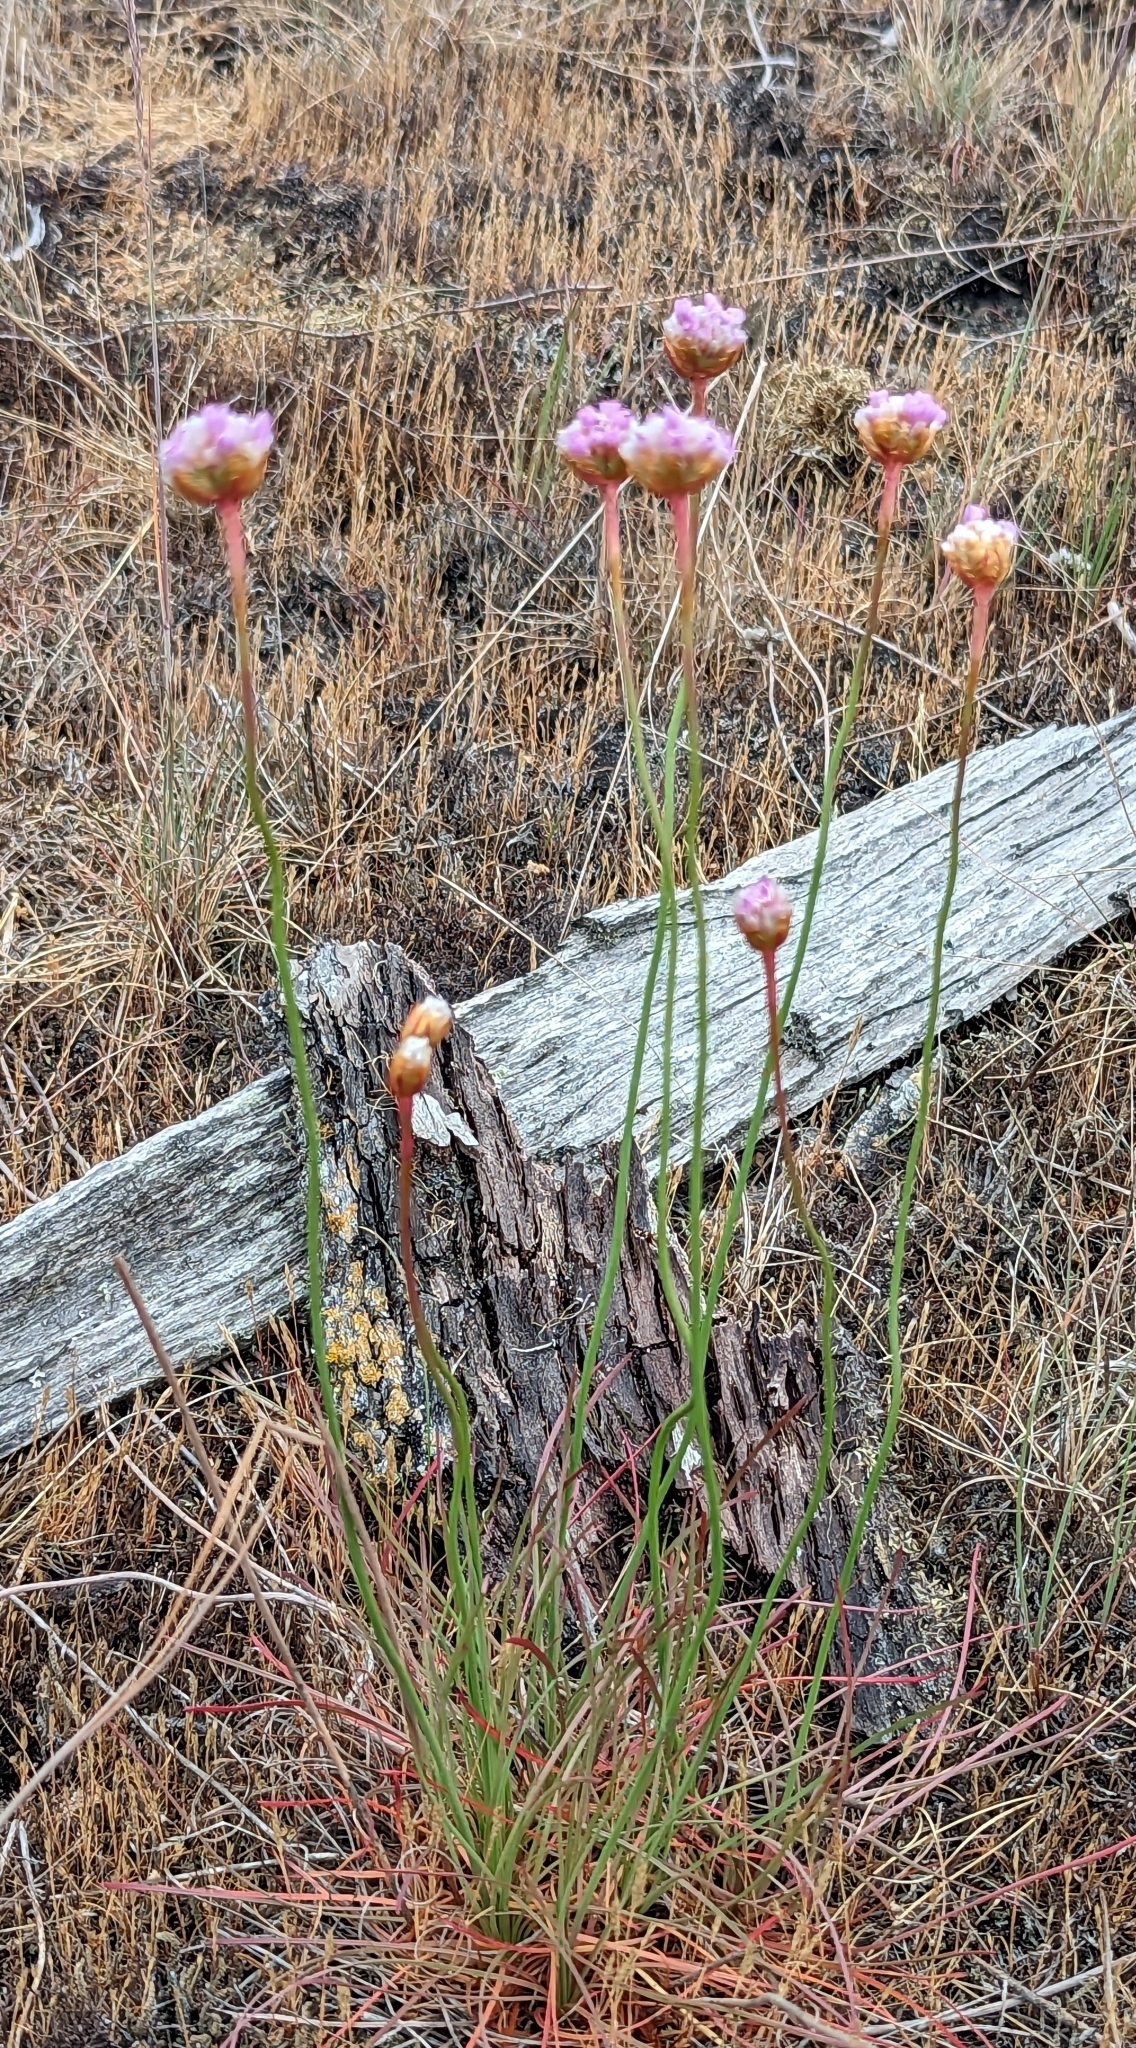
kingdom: Plantae
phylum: Tracheophyta
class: Magnoliopsida
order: Caryophyllales
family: Plumbaginaceae
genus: Armeria
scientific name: Armeria maritima
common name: Thrift
